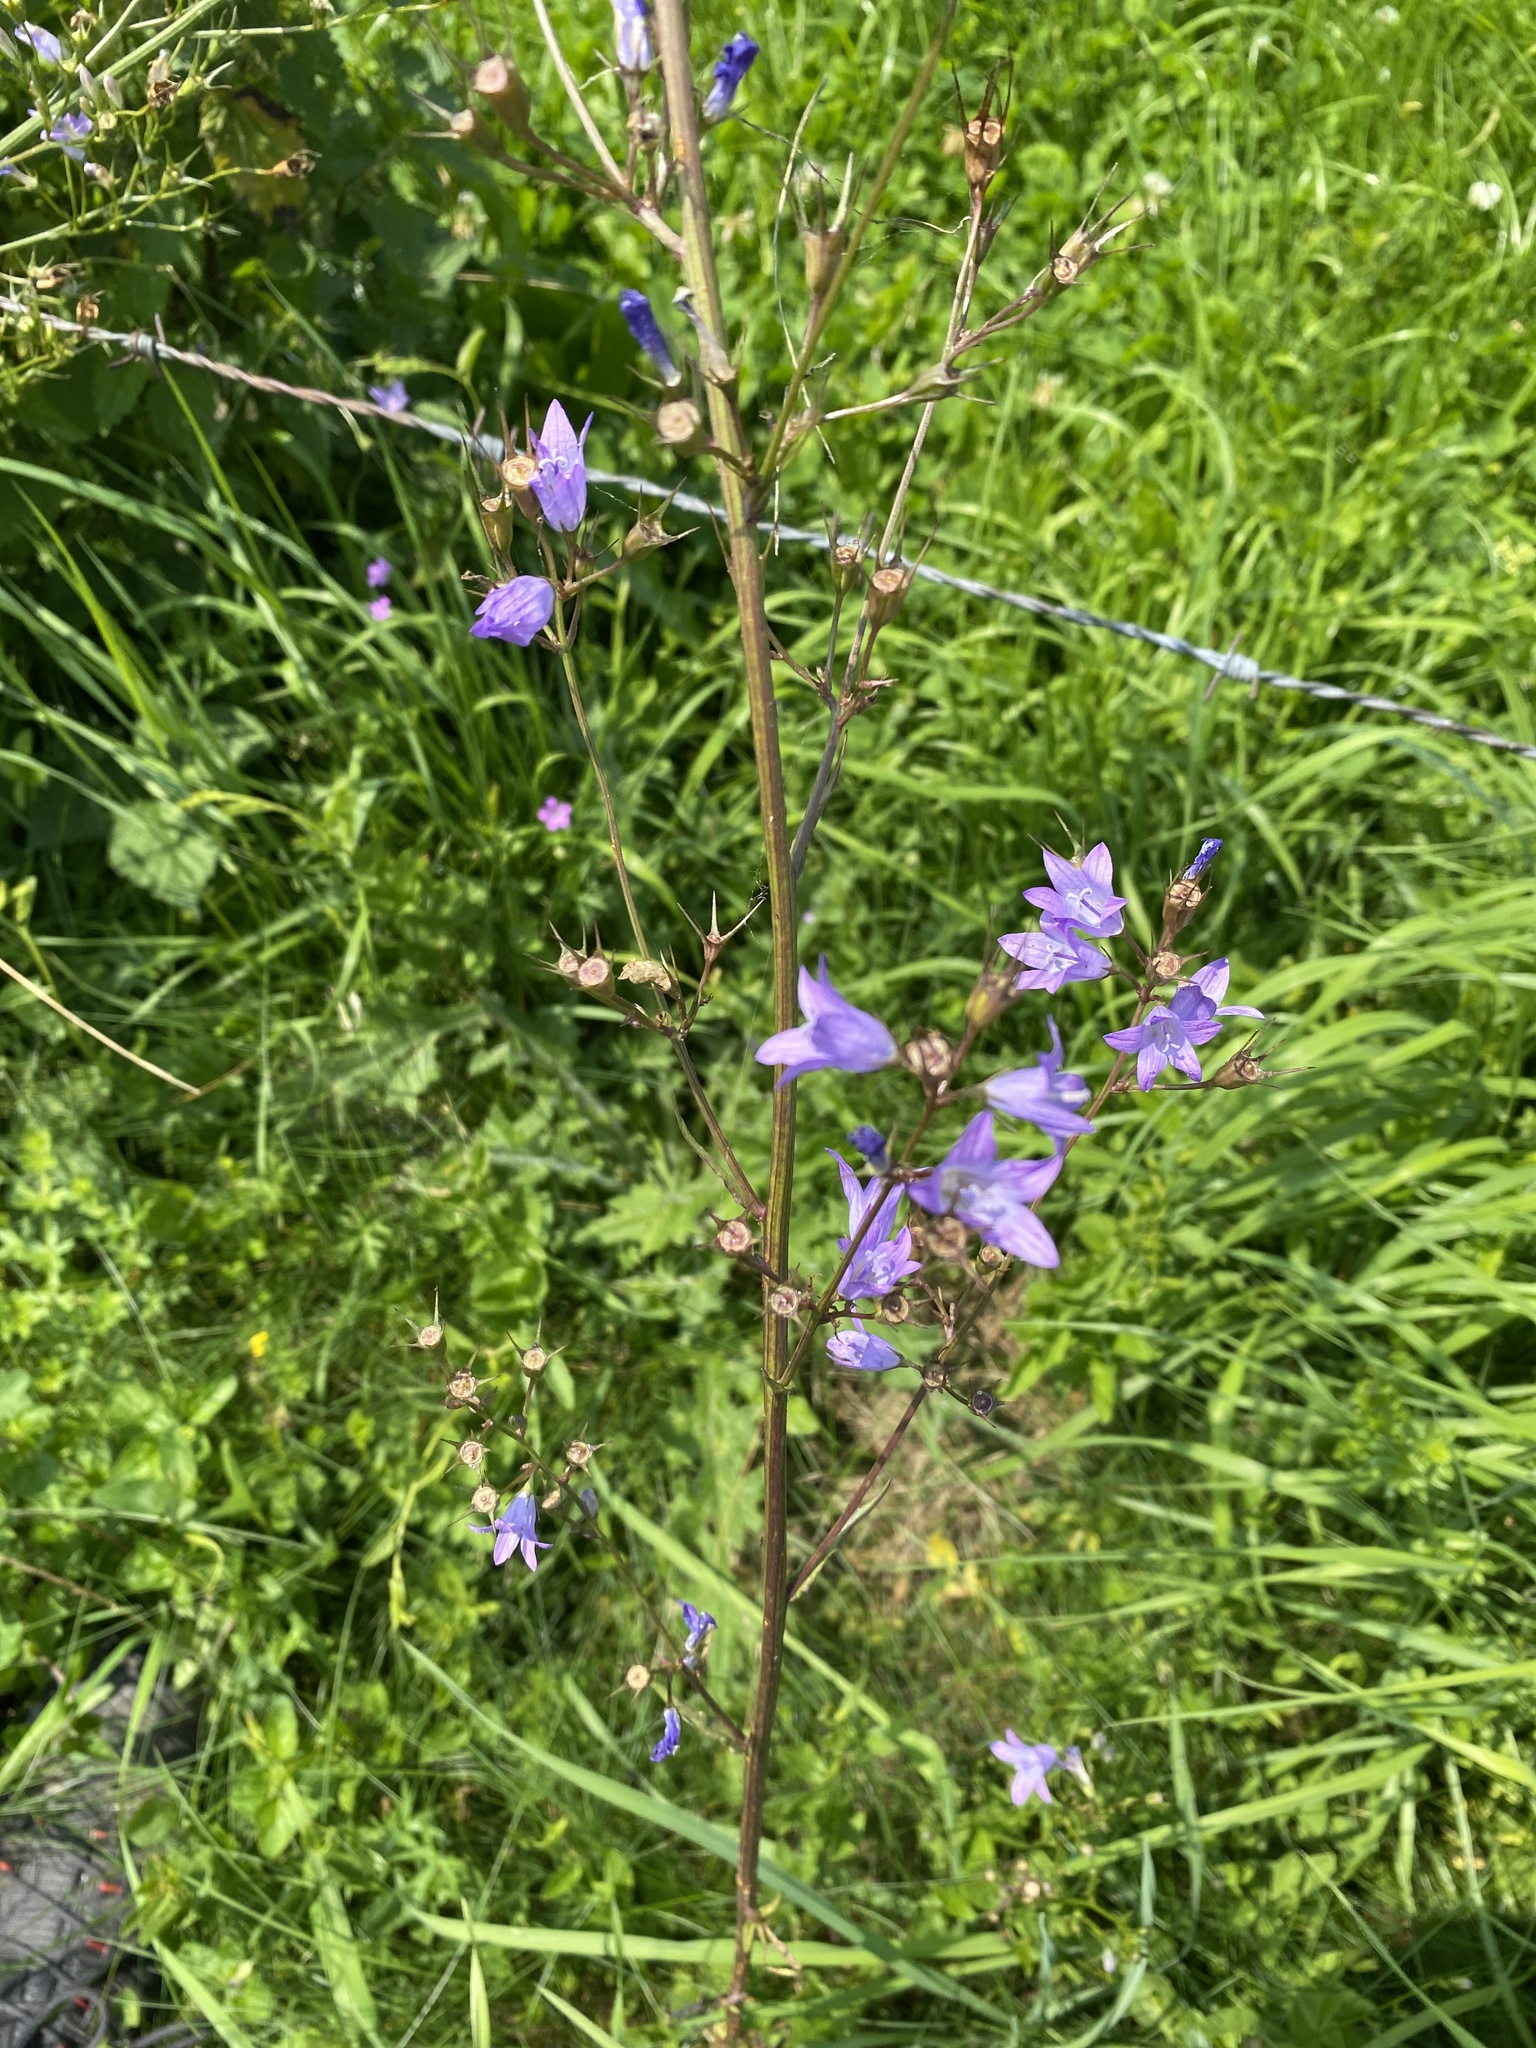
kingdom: Plantae
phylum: Tracheophyta
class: Magnoliopsida
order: Asterales
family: Campanulaceae
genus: Campanula
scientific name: Campanula rapunculus
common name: Rampion bellflower
